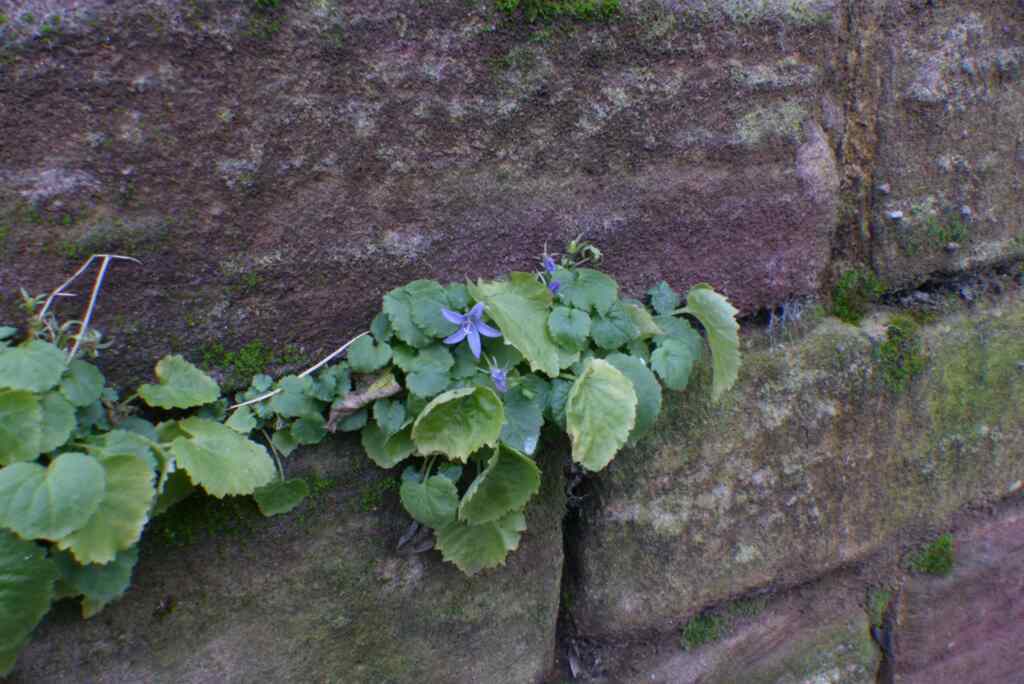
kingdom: Plantae
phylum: Tracheophyta
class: Magnoliopsida
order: Asterales
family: Campanulaceae
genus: Campanula
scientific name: Campanula poscharskyana
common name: Trailing bellflower
